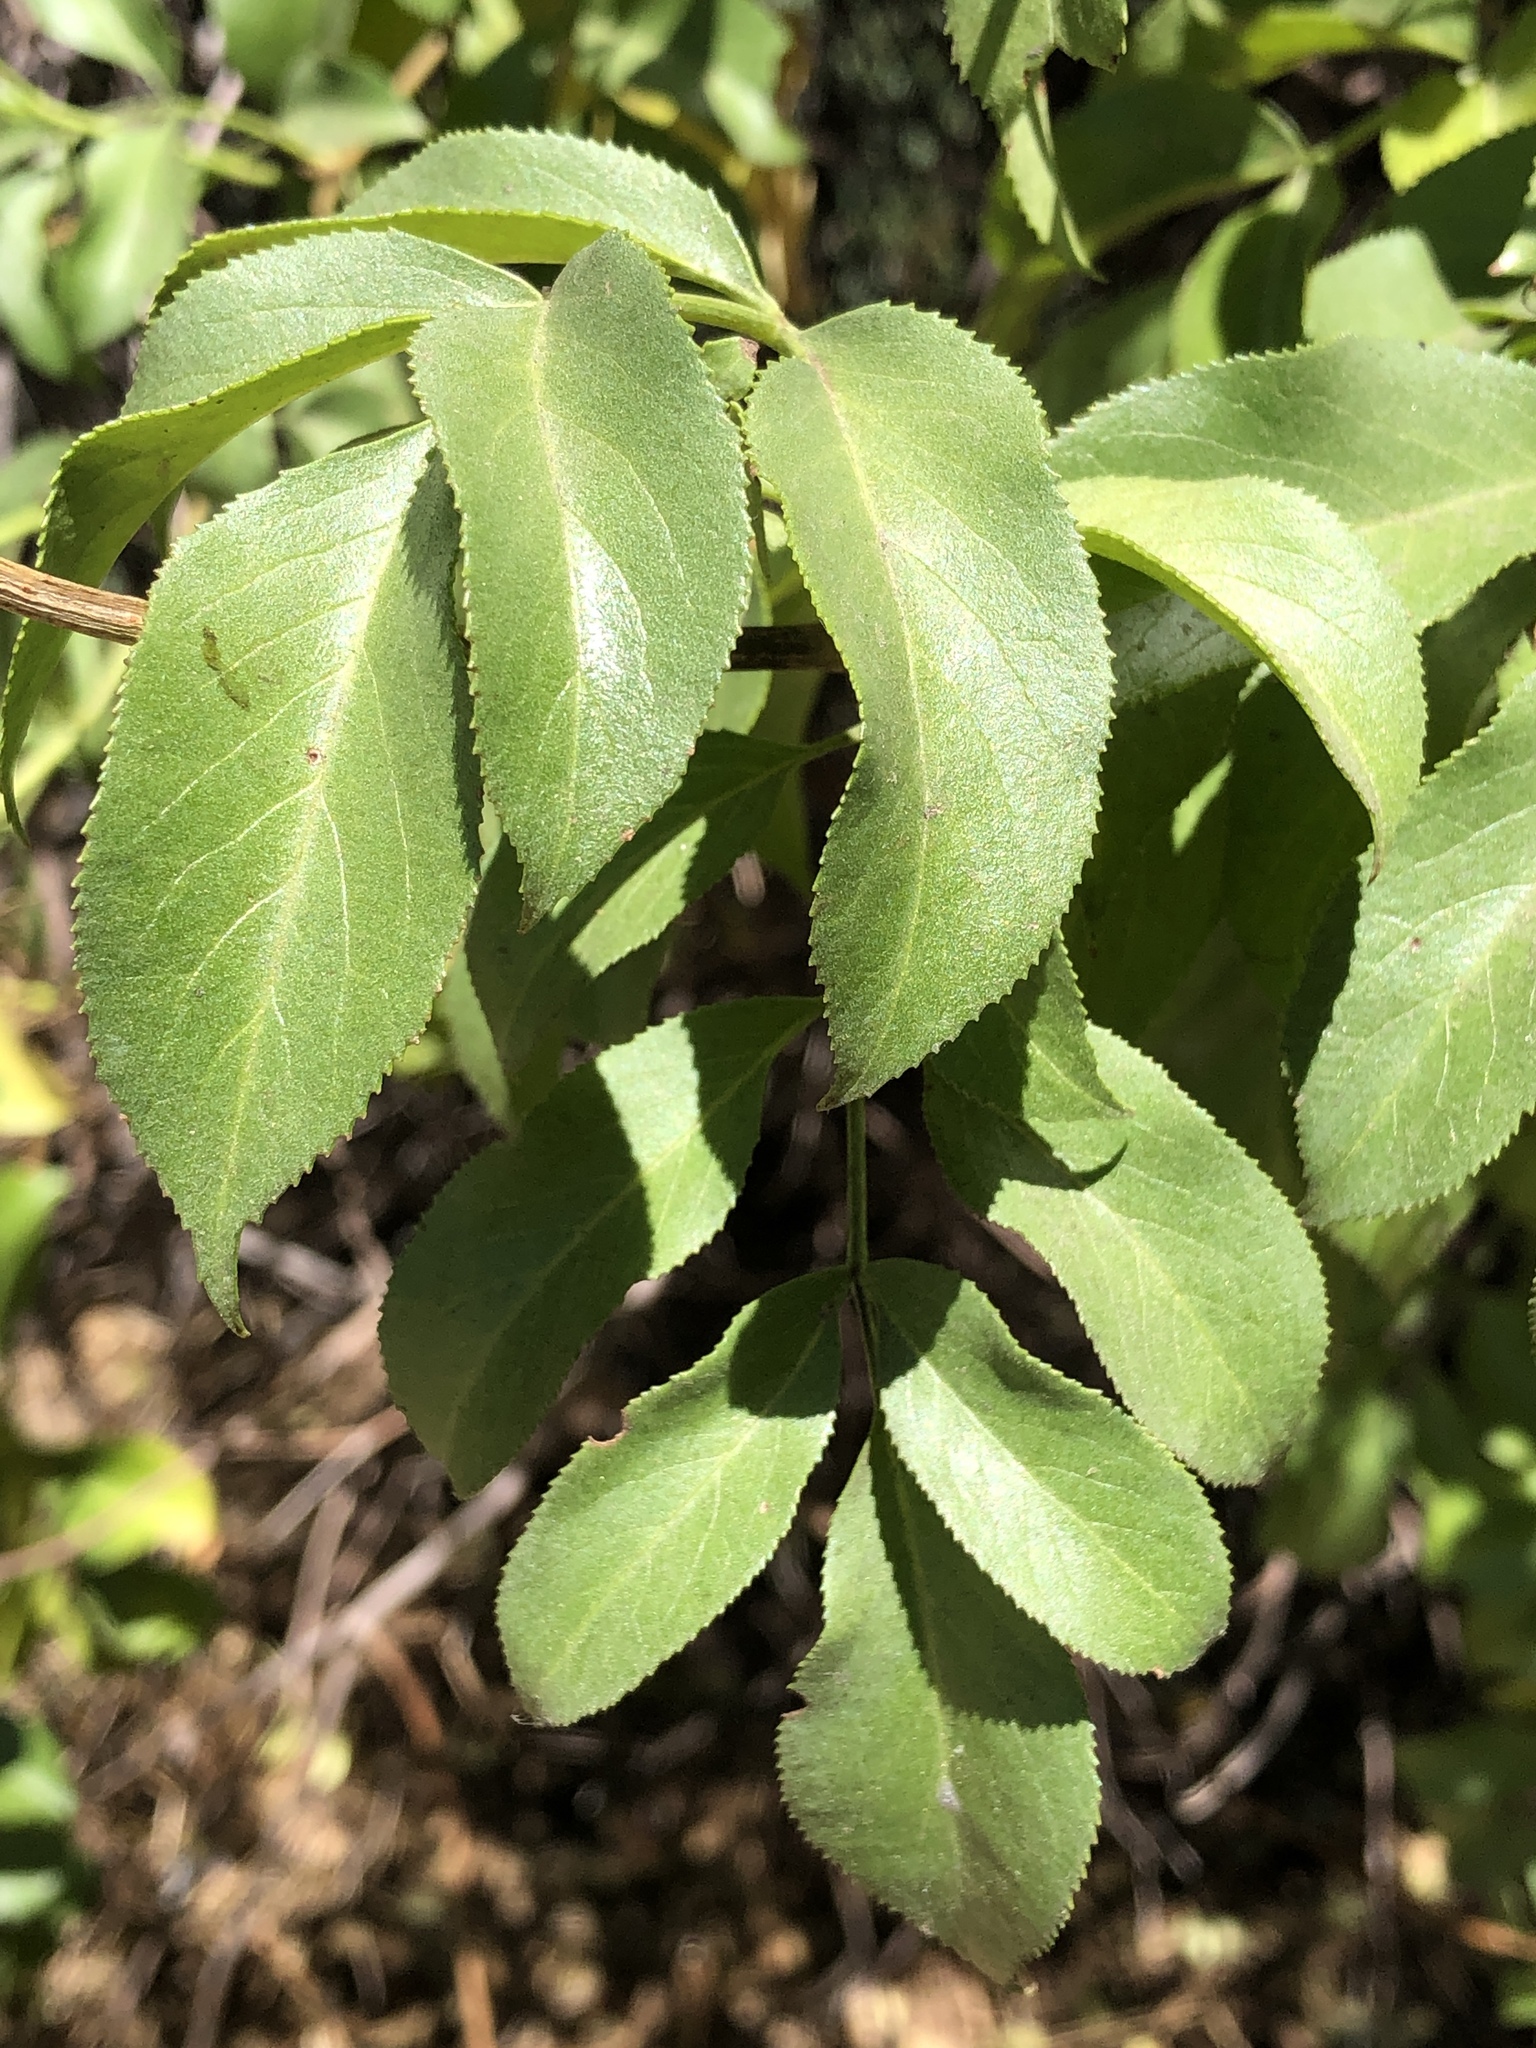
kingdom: Plantae
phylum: Tracheophyta
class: Magnoliopsida
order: Dipsacales
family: Viburnaceae
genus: Sambucus
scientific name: Sambucus cerulea
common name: Blue elder
